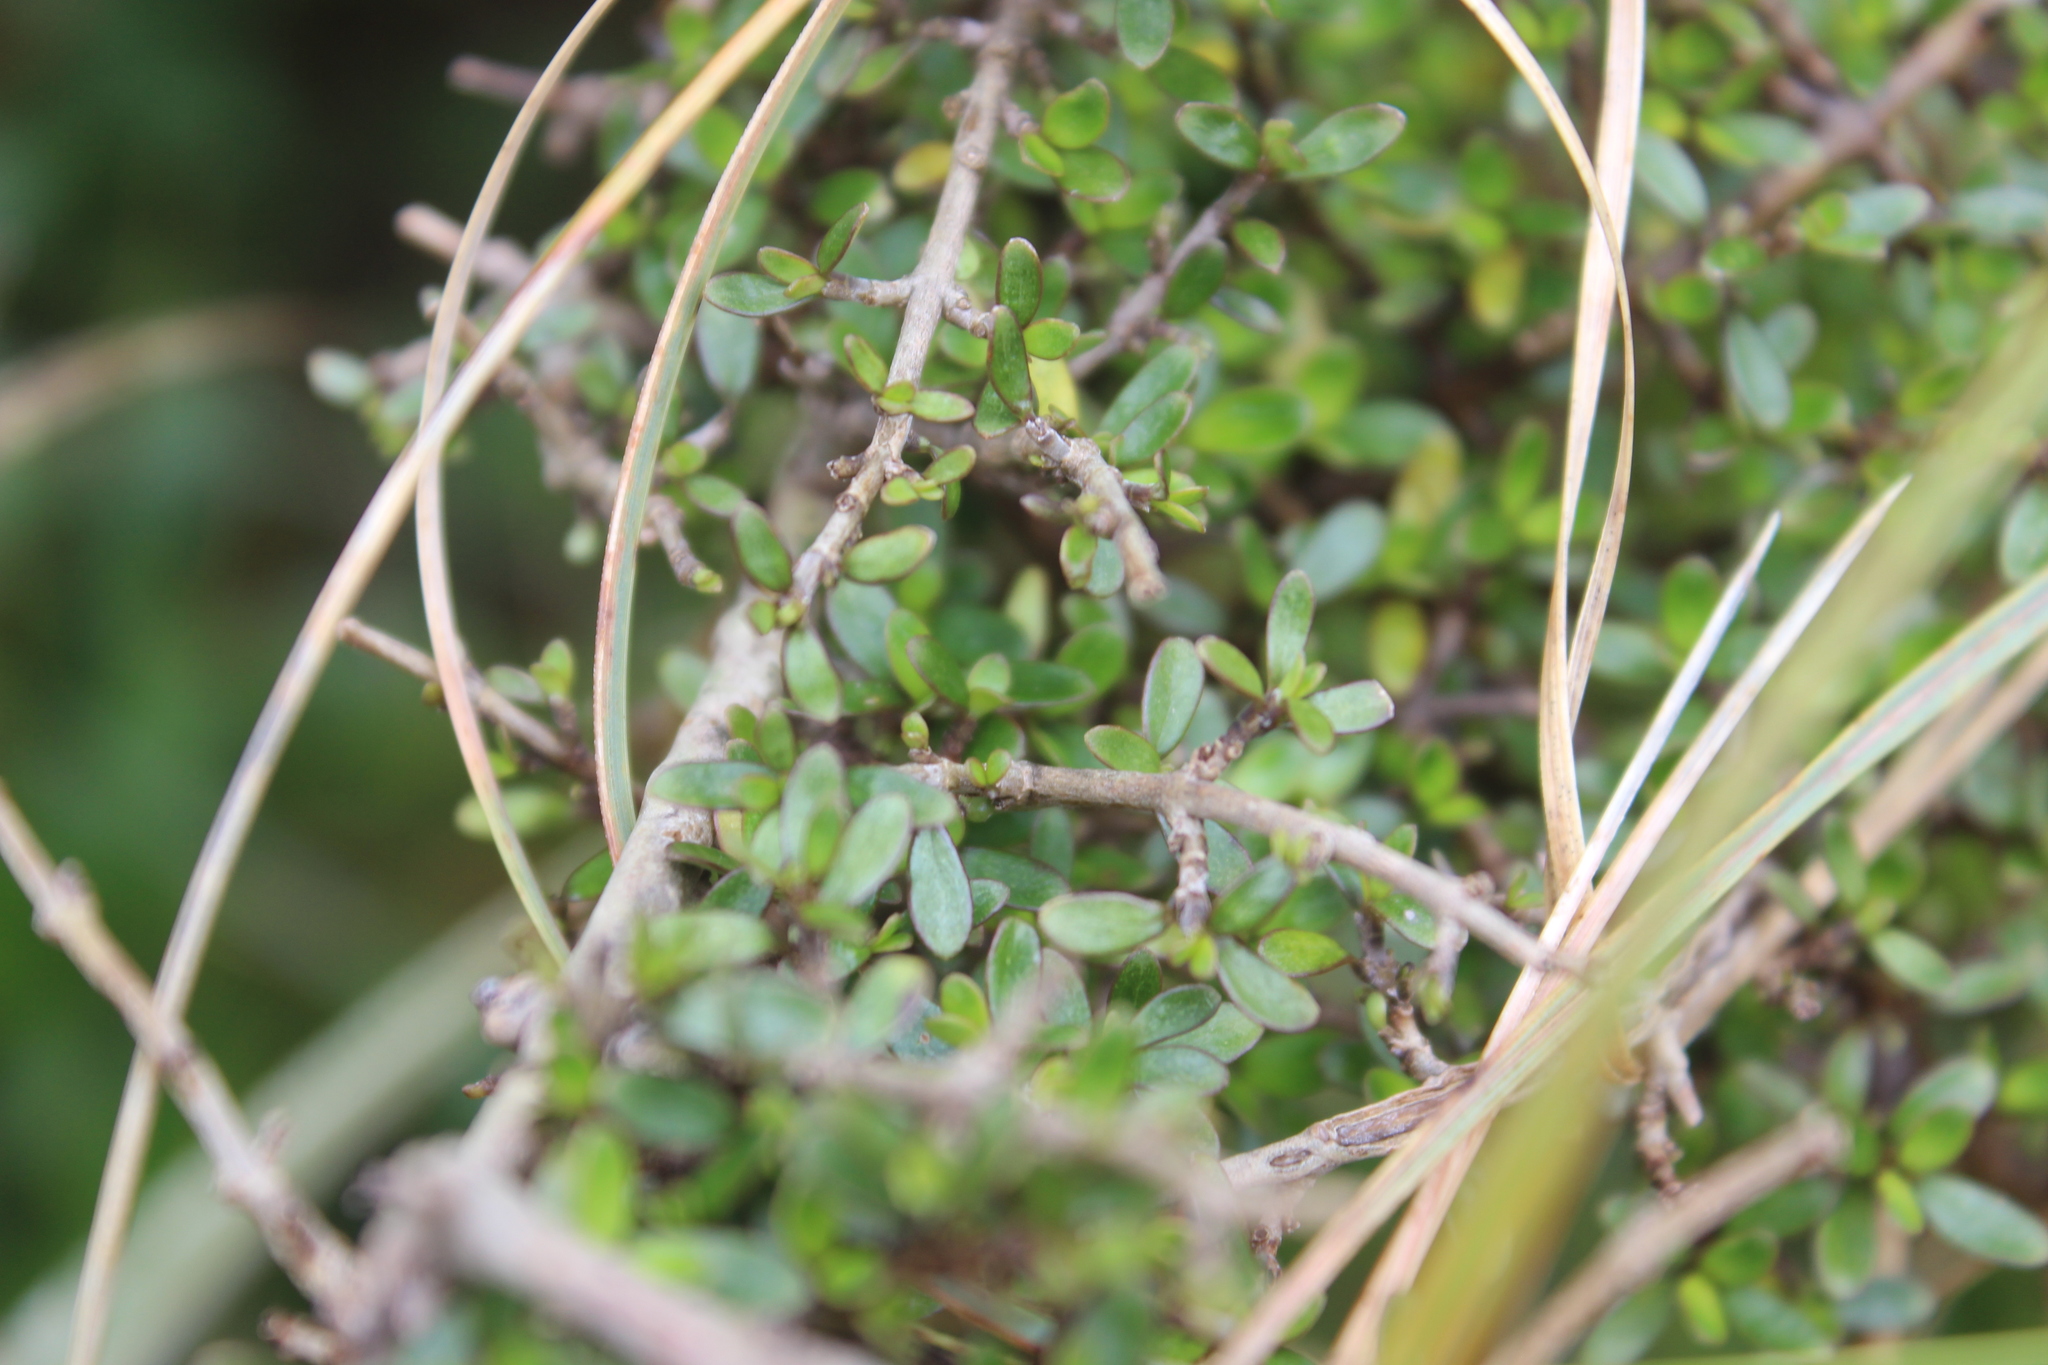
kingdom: Plantae
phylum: Tracheophyta
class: Magnoliopsida
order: Gentianales
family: Rubiaceae
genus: Coprosma
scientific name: Coprosma dumosa
